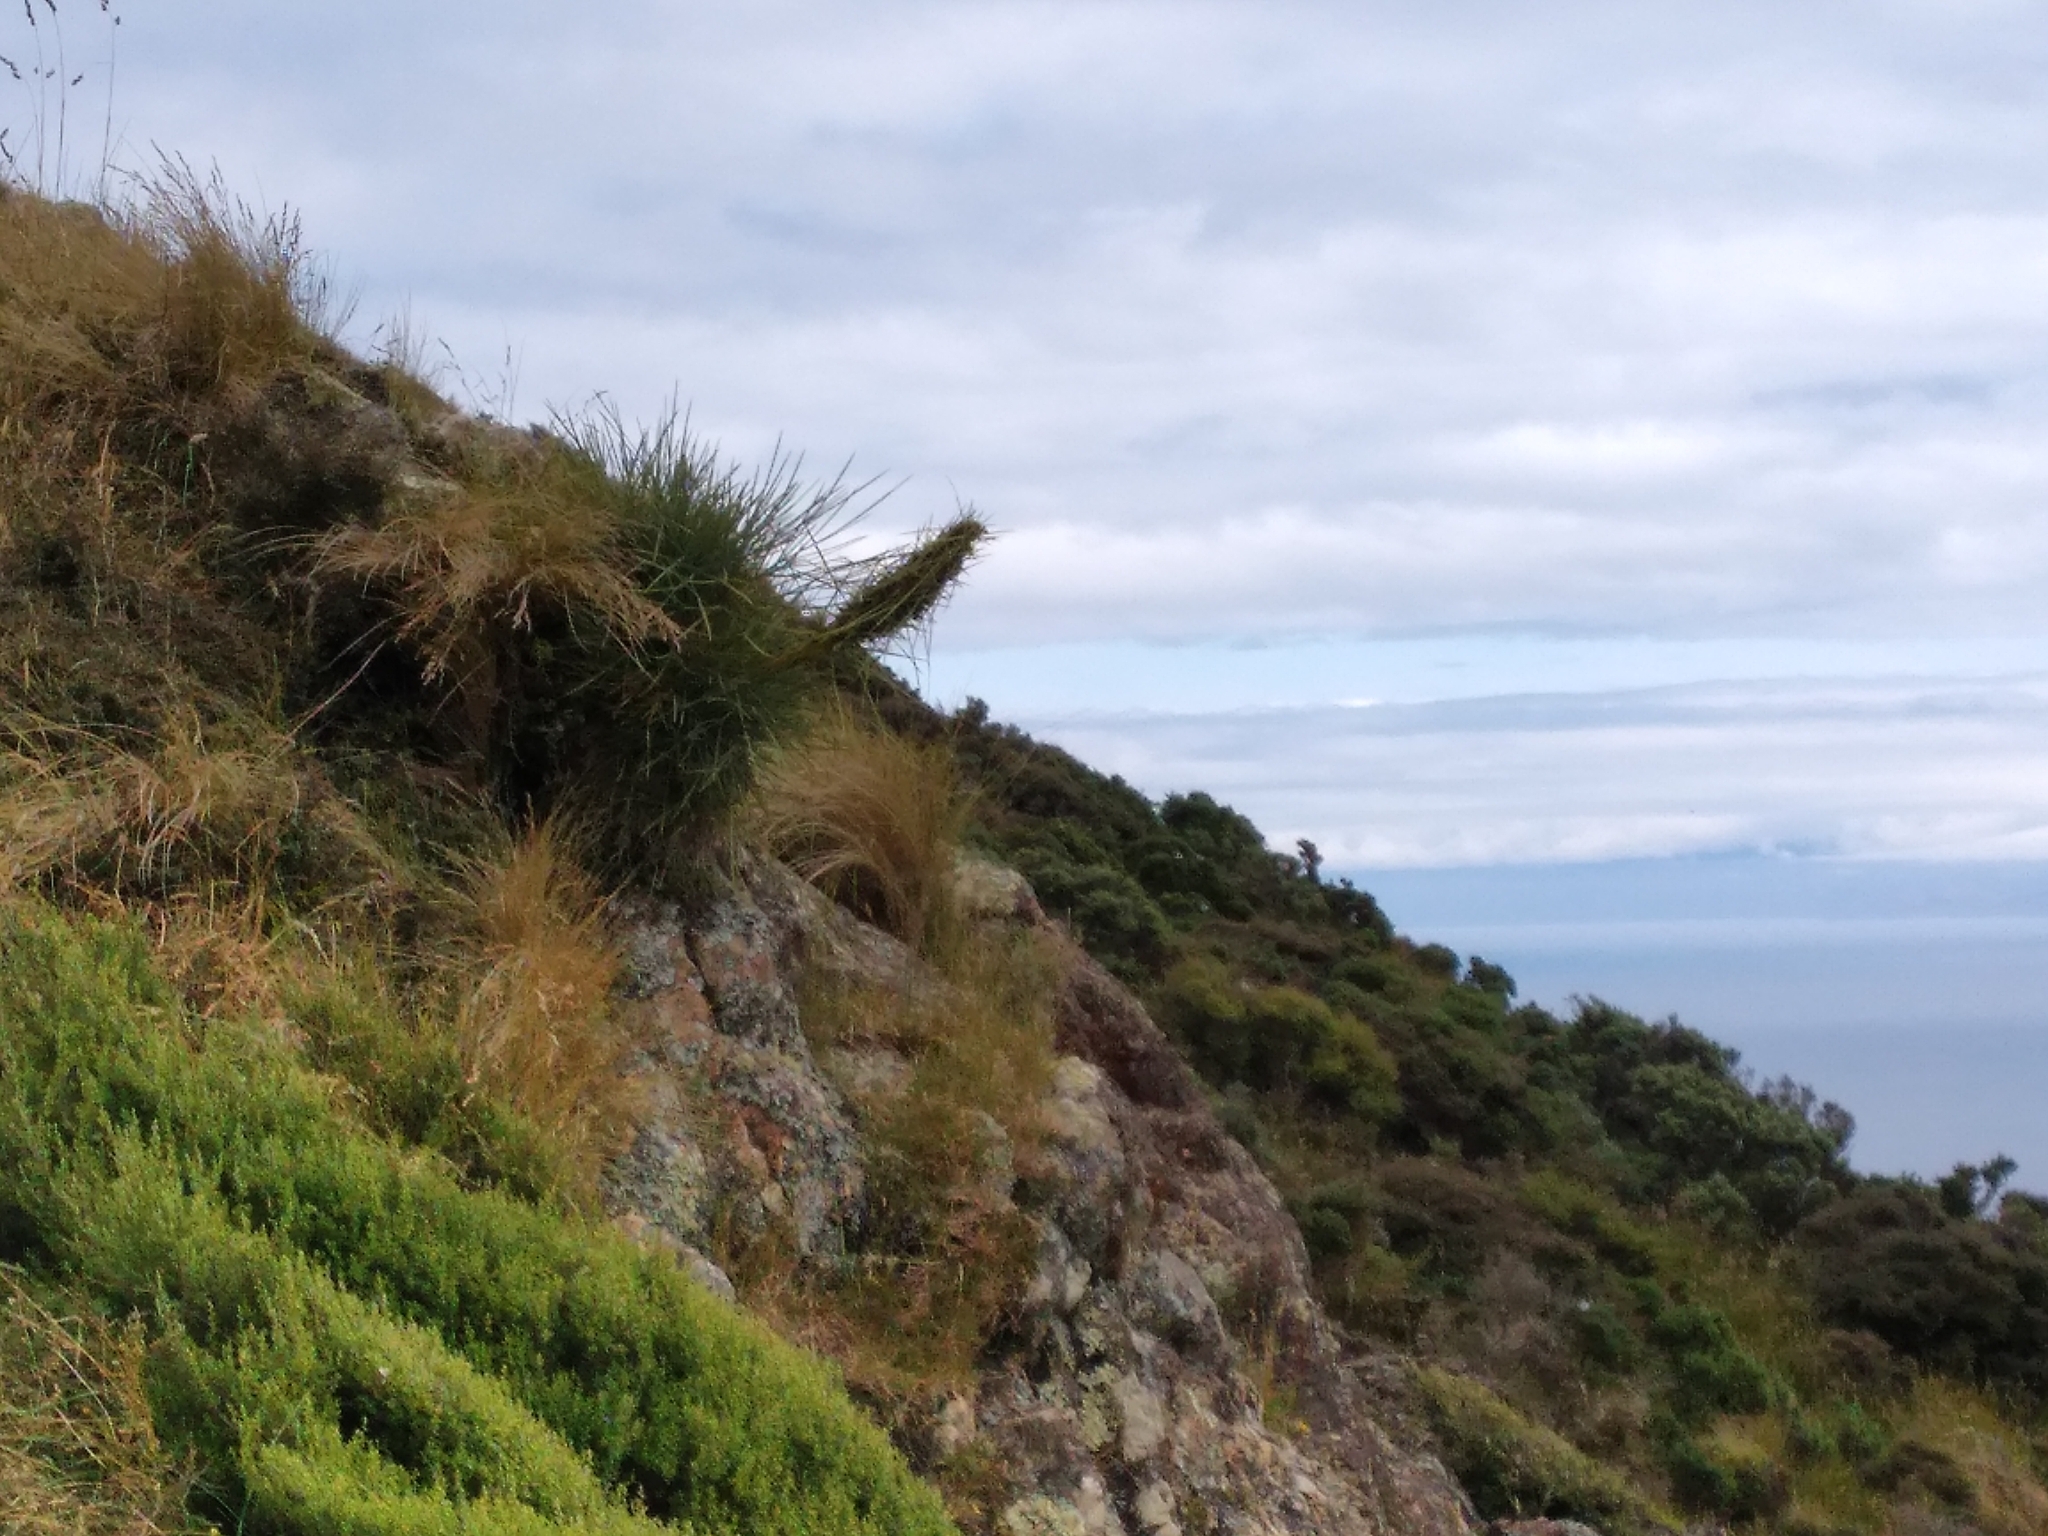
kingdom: Plantae
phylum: Tracheophyta
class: Magnoliopsida
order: Apiales
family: Apiaceae
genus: Aciphylla
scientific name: Aciphylla squarrosa
